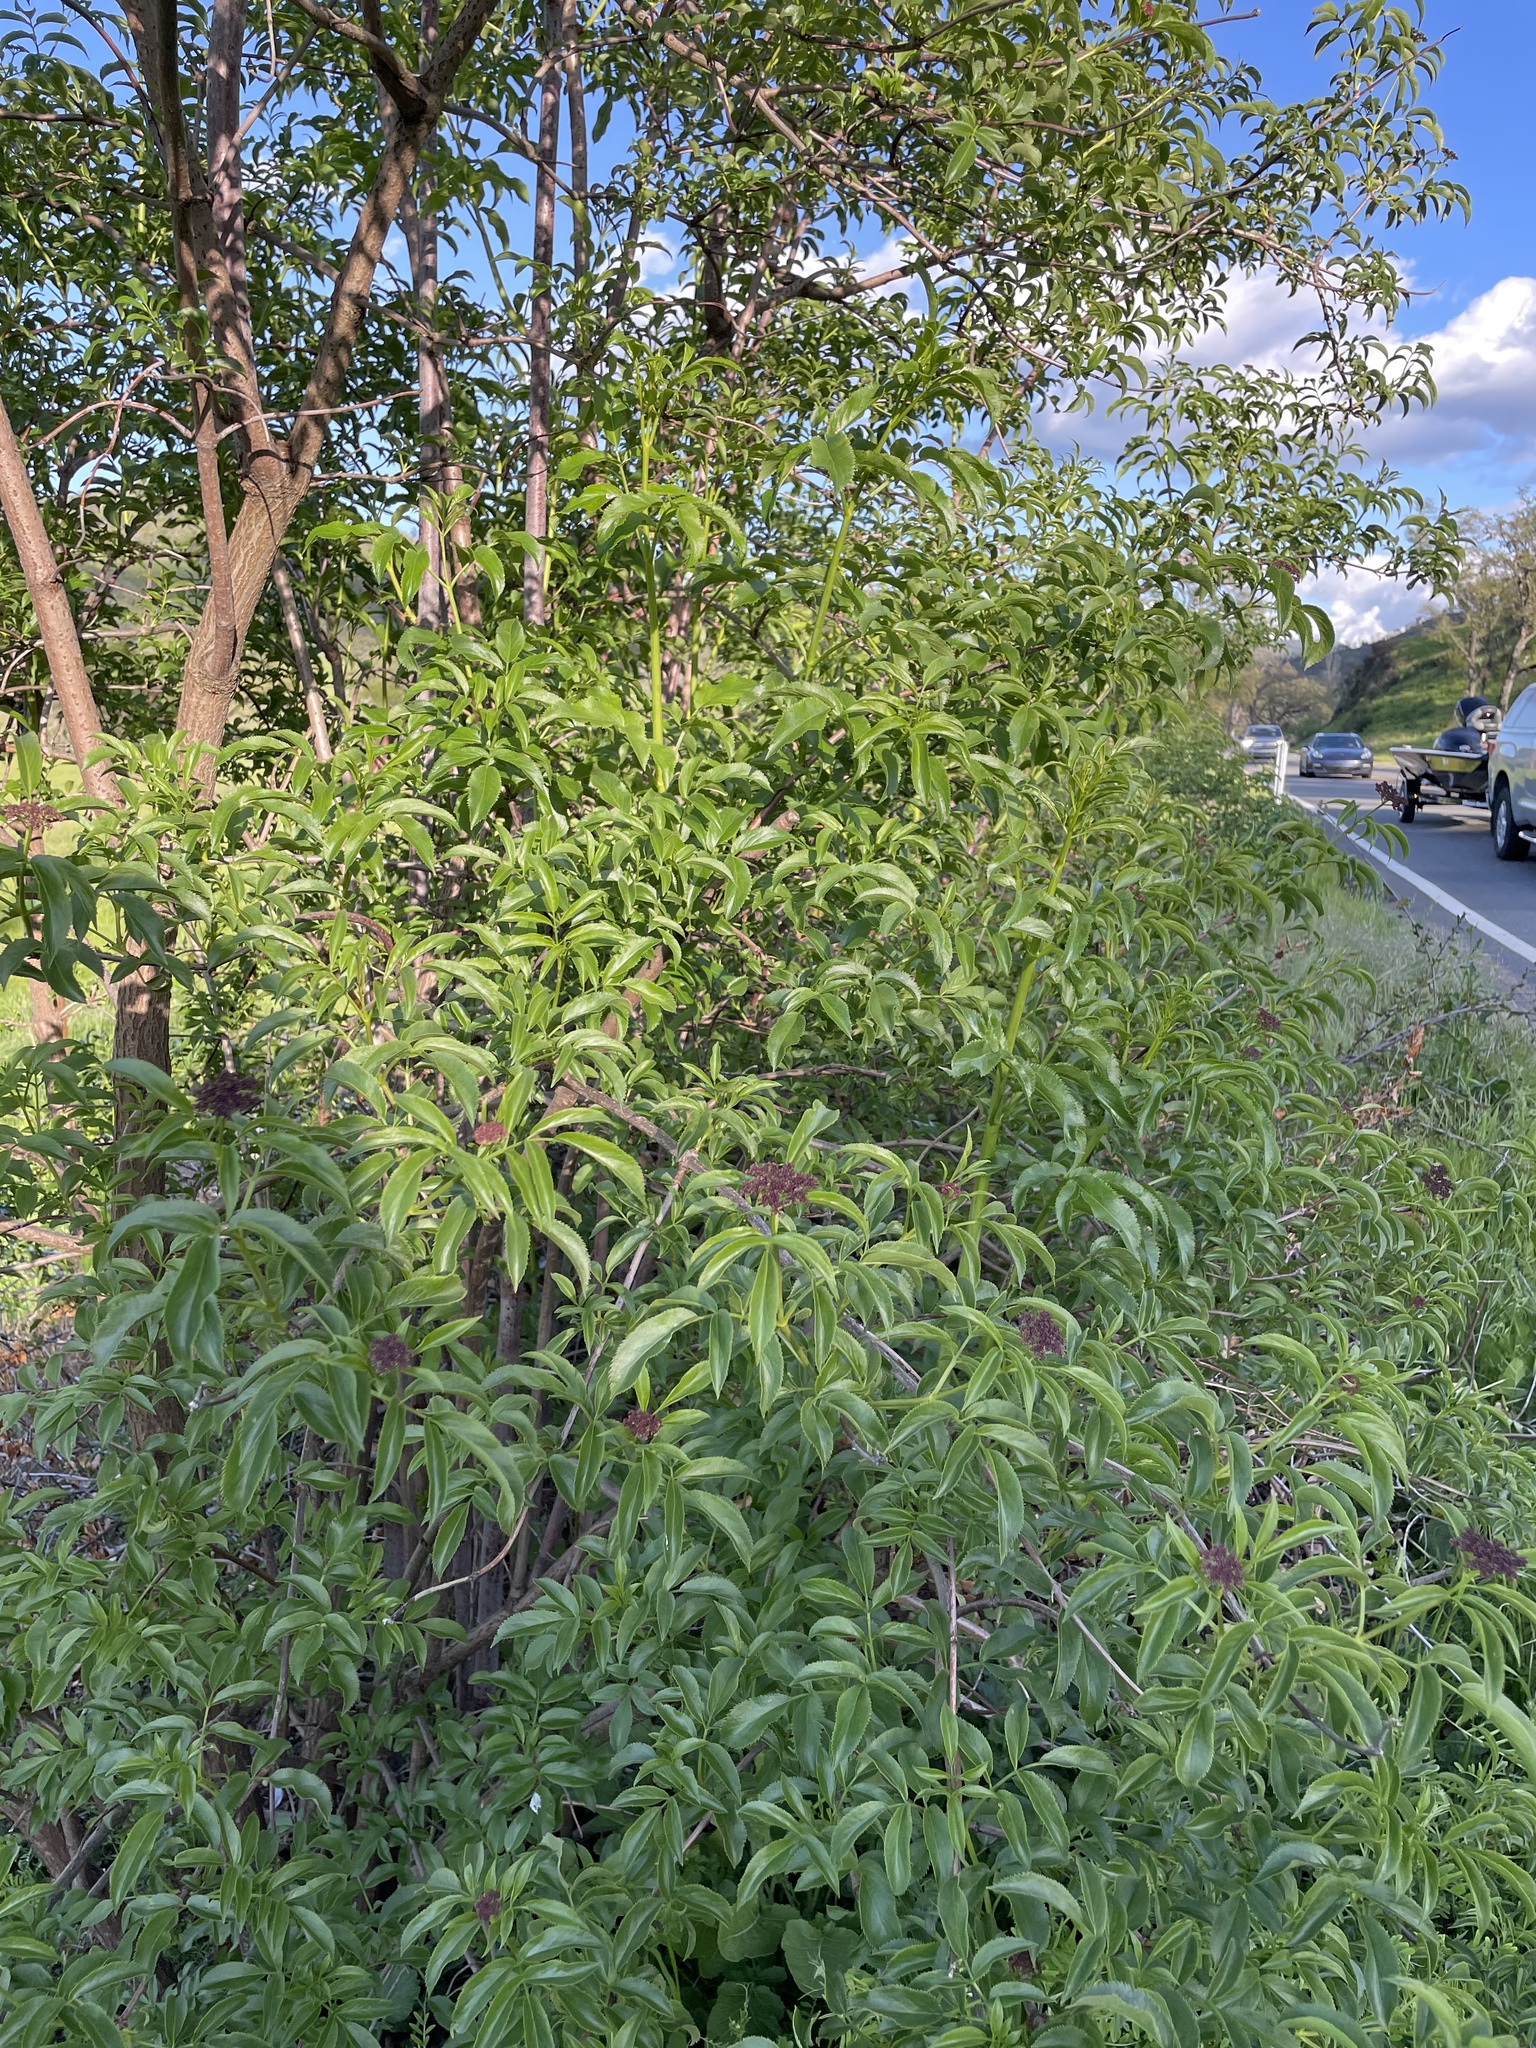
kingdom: Plantae
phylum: Tracheophyta
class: Magnoliopsida
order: Dipsacales
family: Viburnaceae
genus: Sambucus
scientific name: Sambucus cerulea
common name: Blue elder
